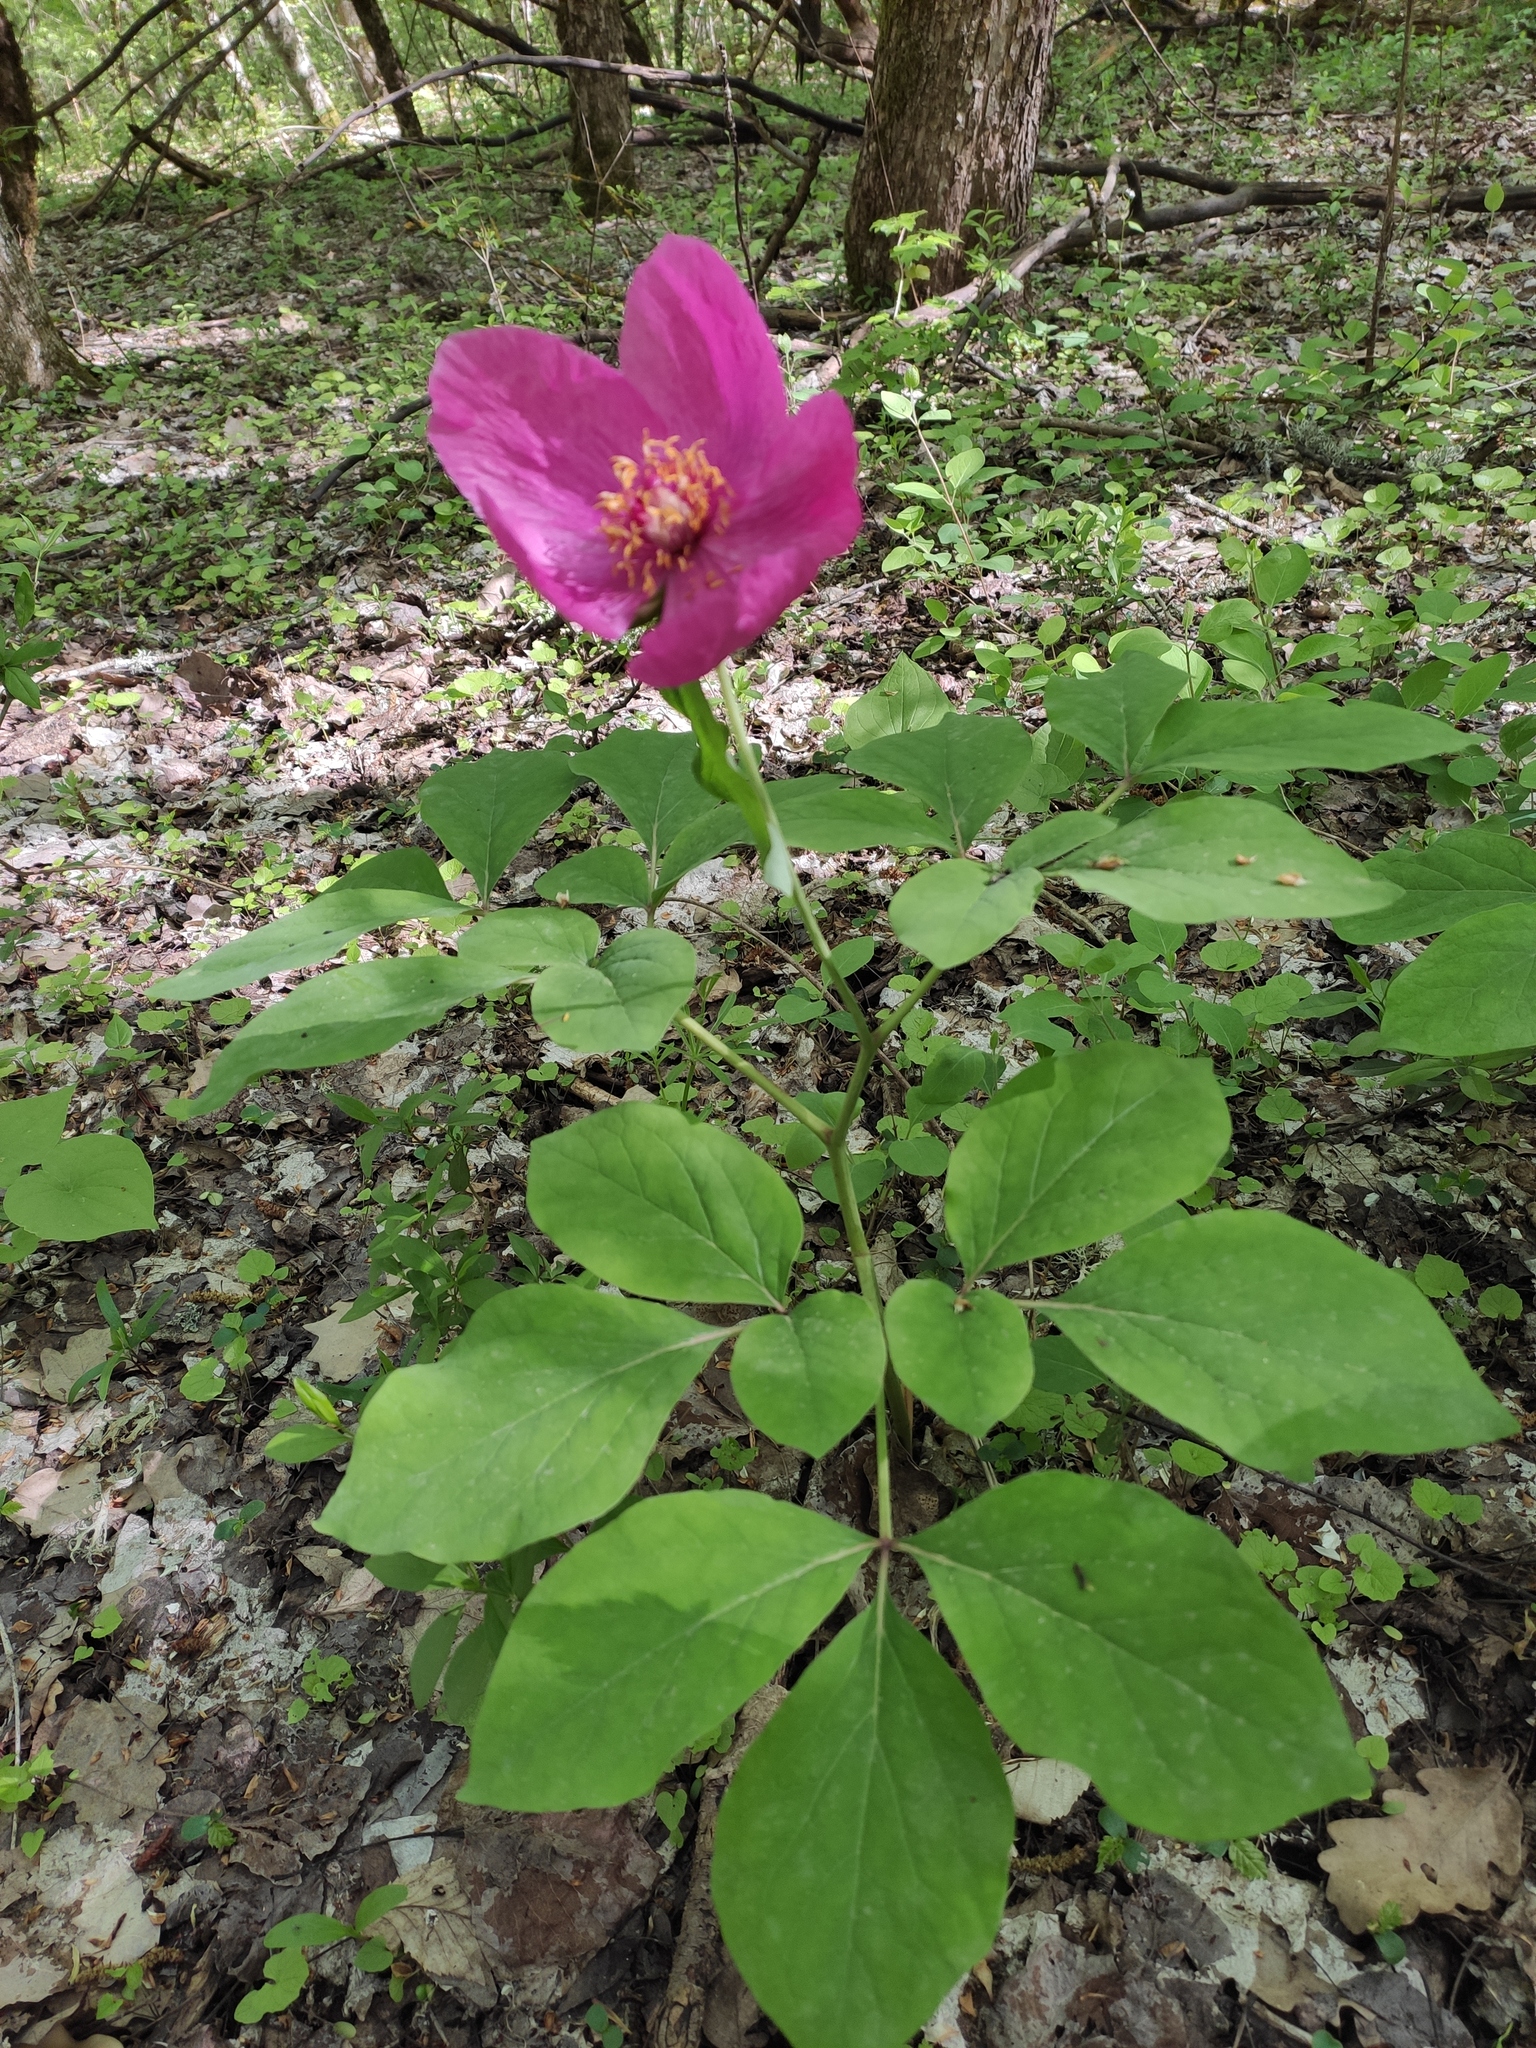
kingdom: Plantae
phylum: Tracheophyta
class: Magnoliopsida
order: Saxifragales
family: Paeoniaceae
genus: Paeonia
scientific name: Paeonia caucasica
